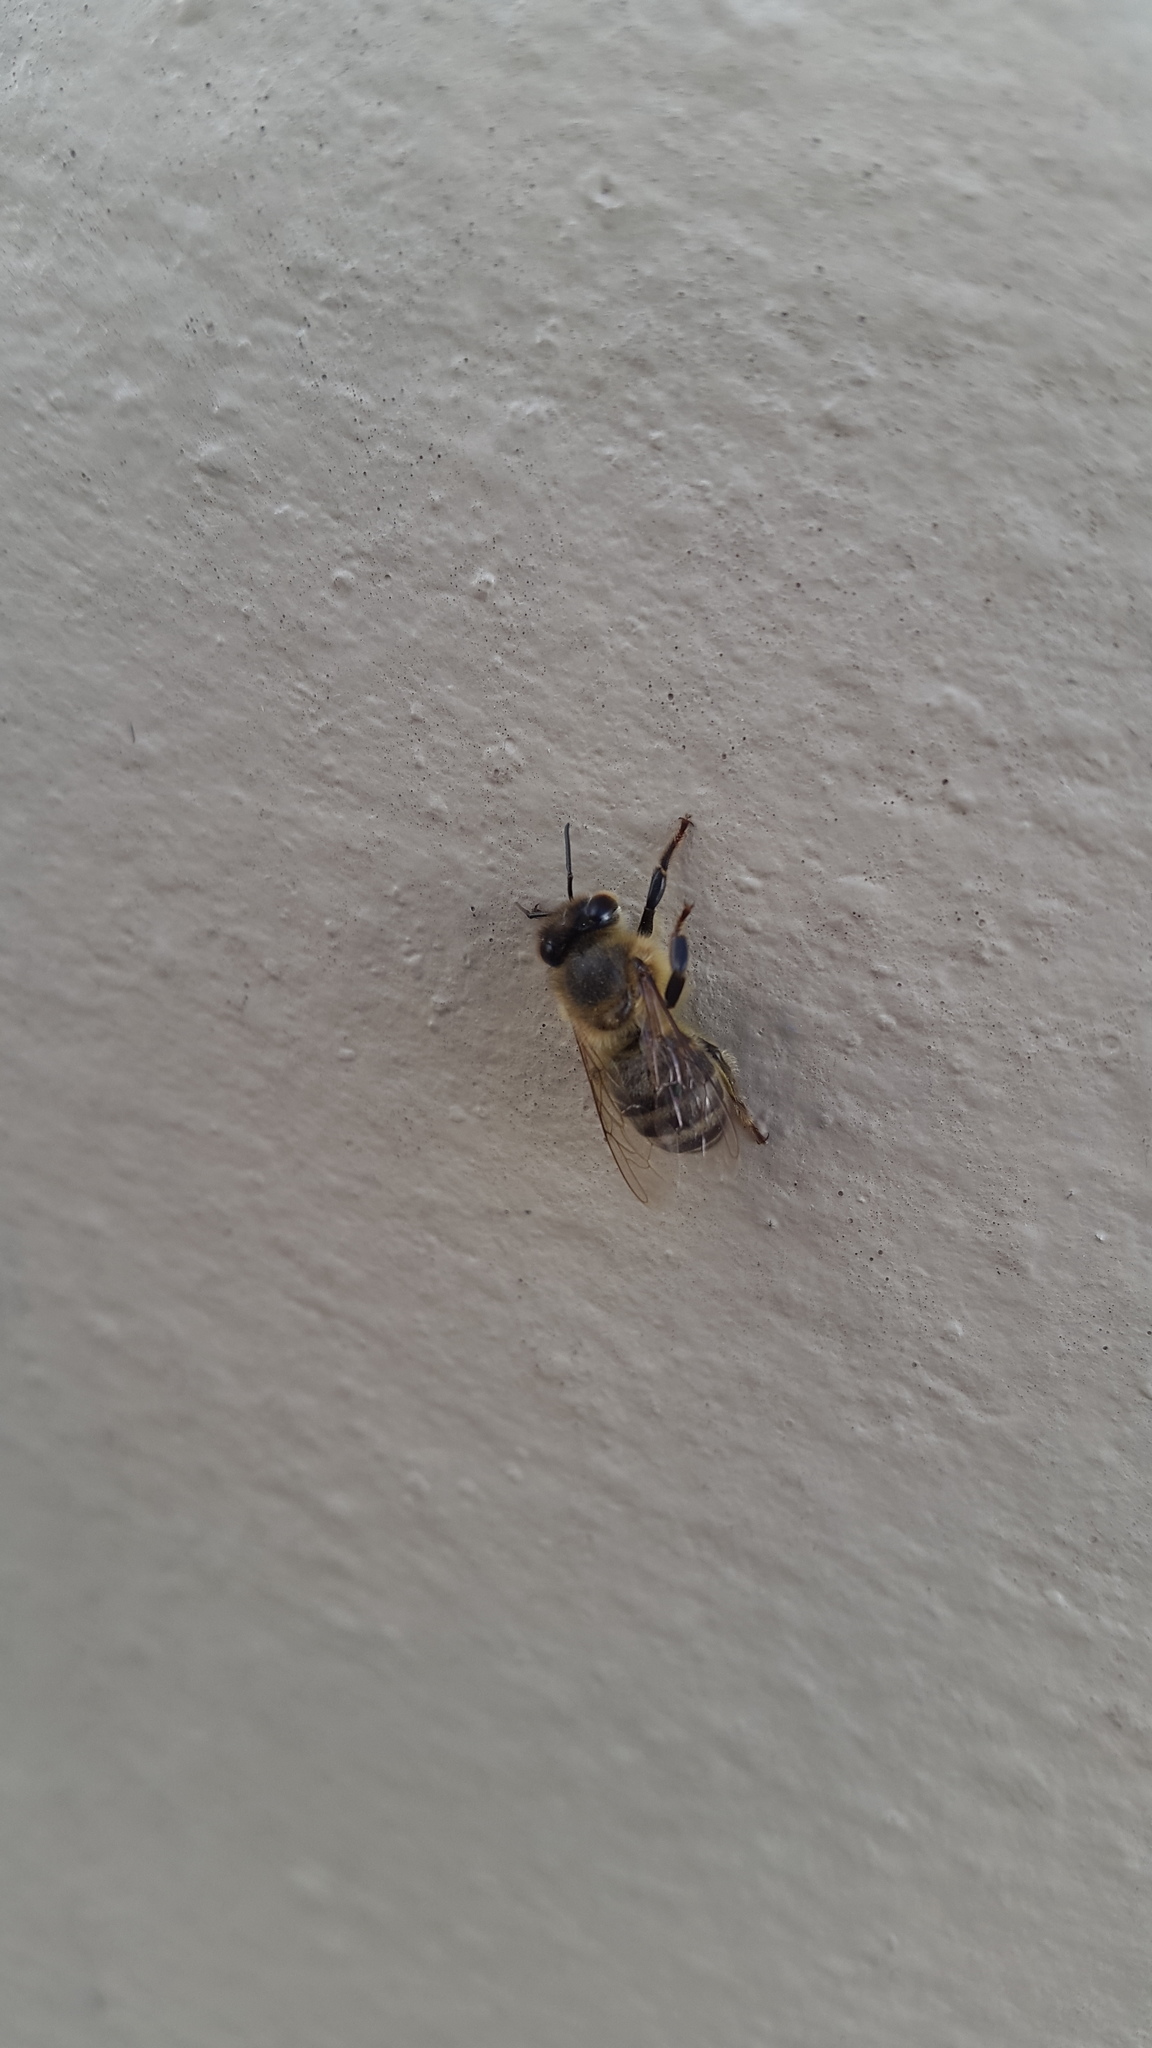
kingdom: Animalia
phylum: Arthropoda
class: Insecta
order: Hymenoptera
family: Apidae
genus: Apis
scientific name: Apis mellifera
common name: Honey bee
